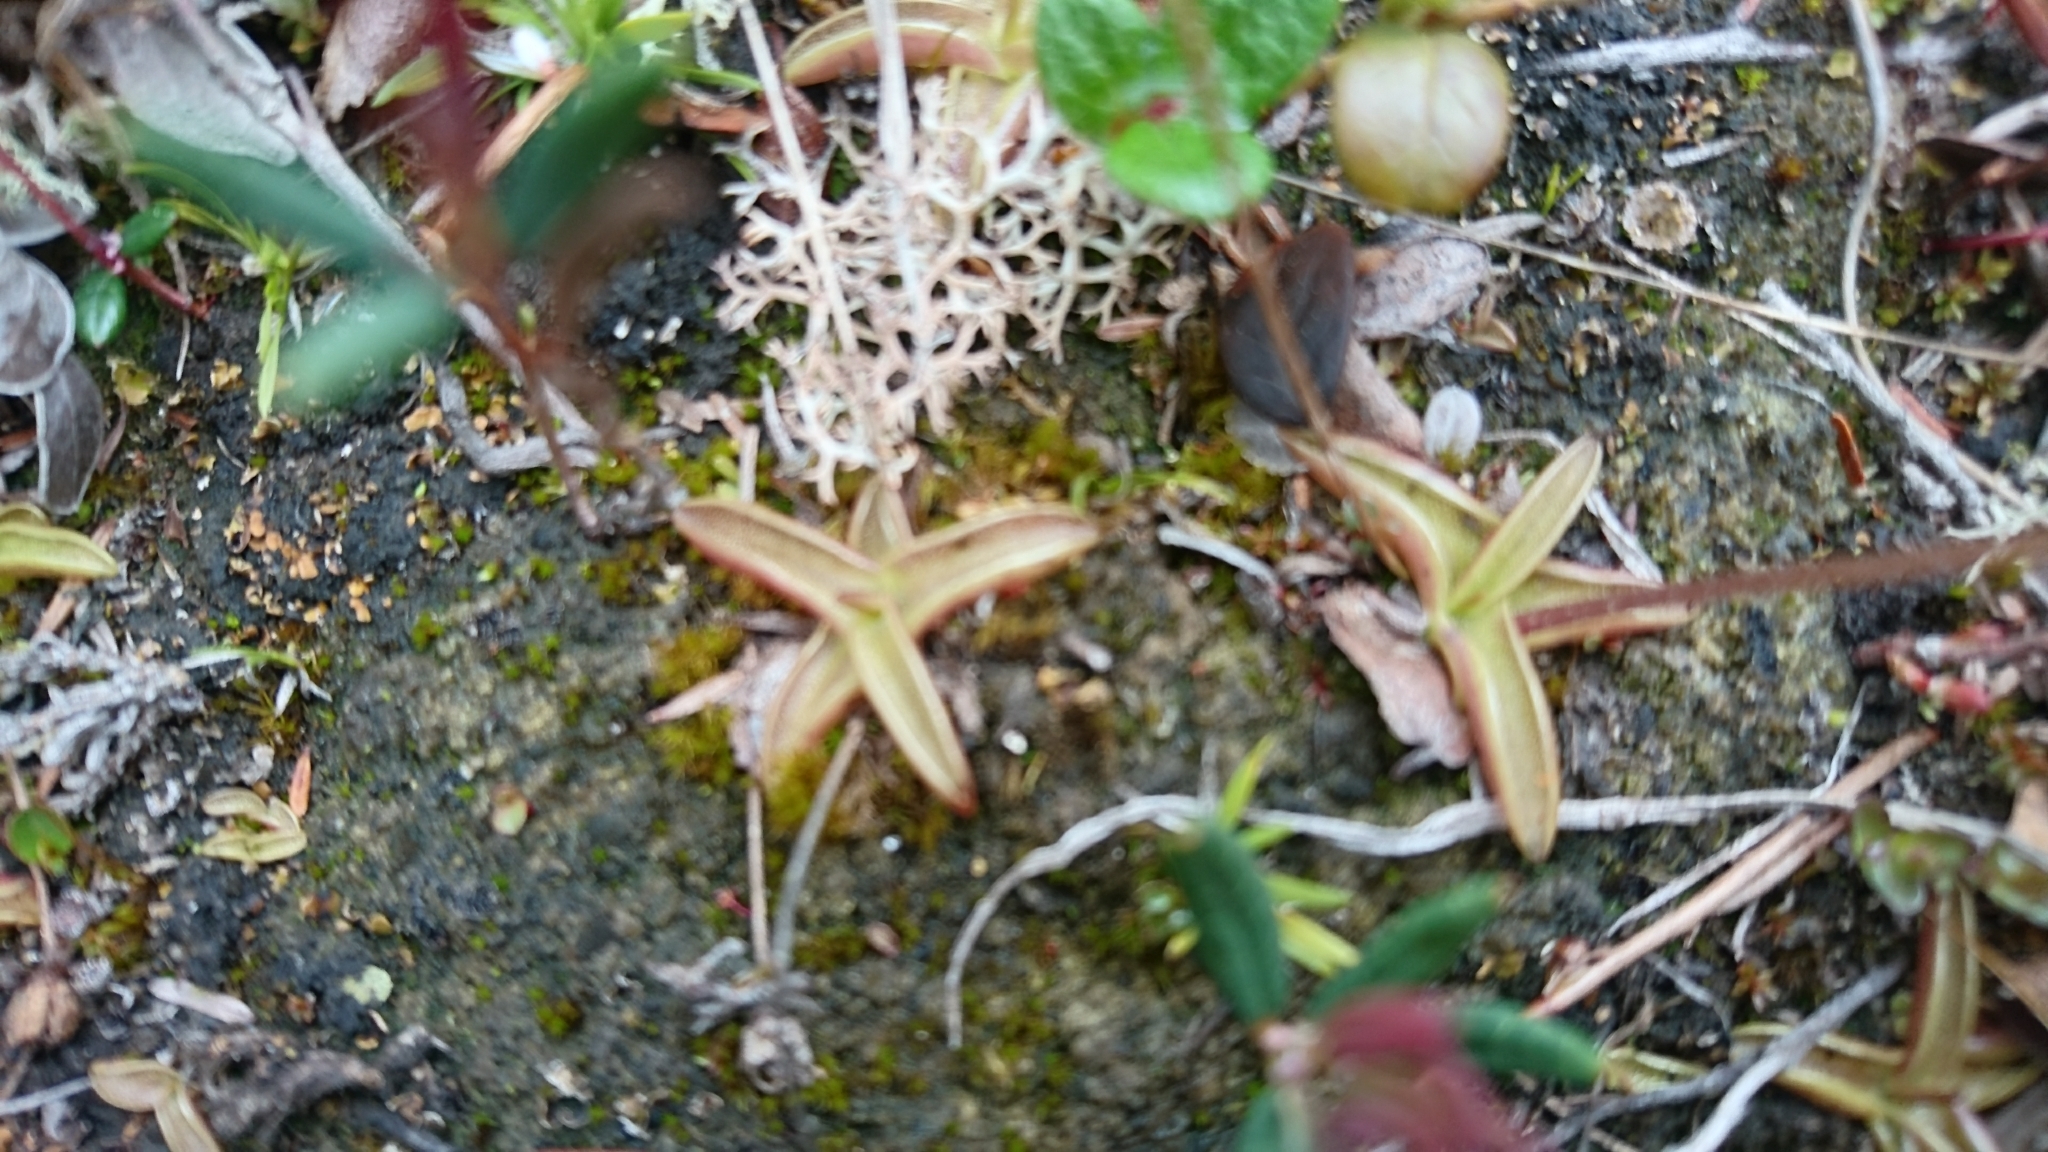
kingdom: Plantae
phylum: Tracheophyta
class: Magnoliopsida
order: Lamiales
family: Lentibulariaceae
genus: Pinguicula
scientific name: Pinguicula alpina
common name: Alpine butterwort
